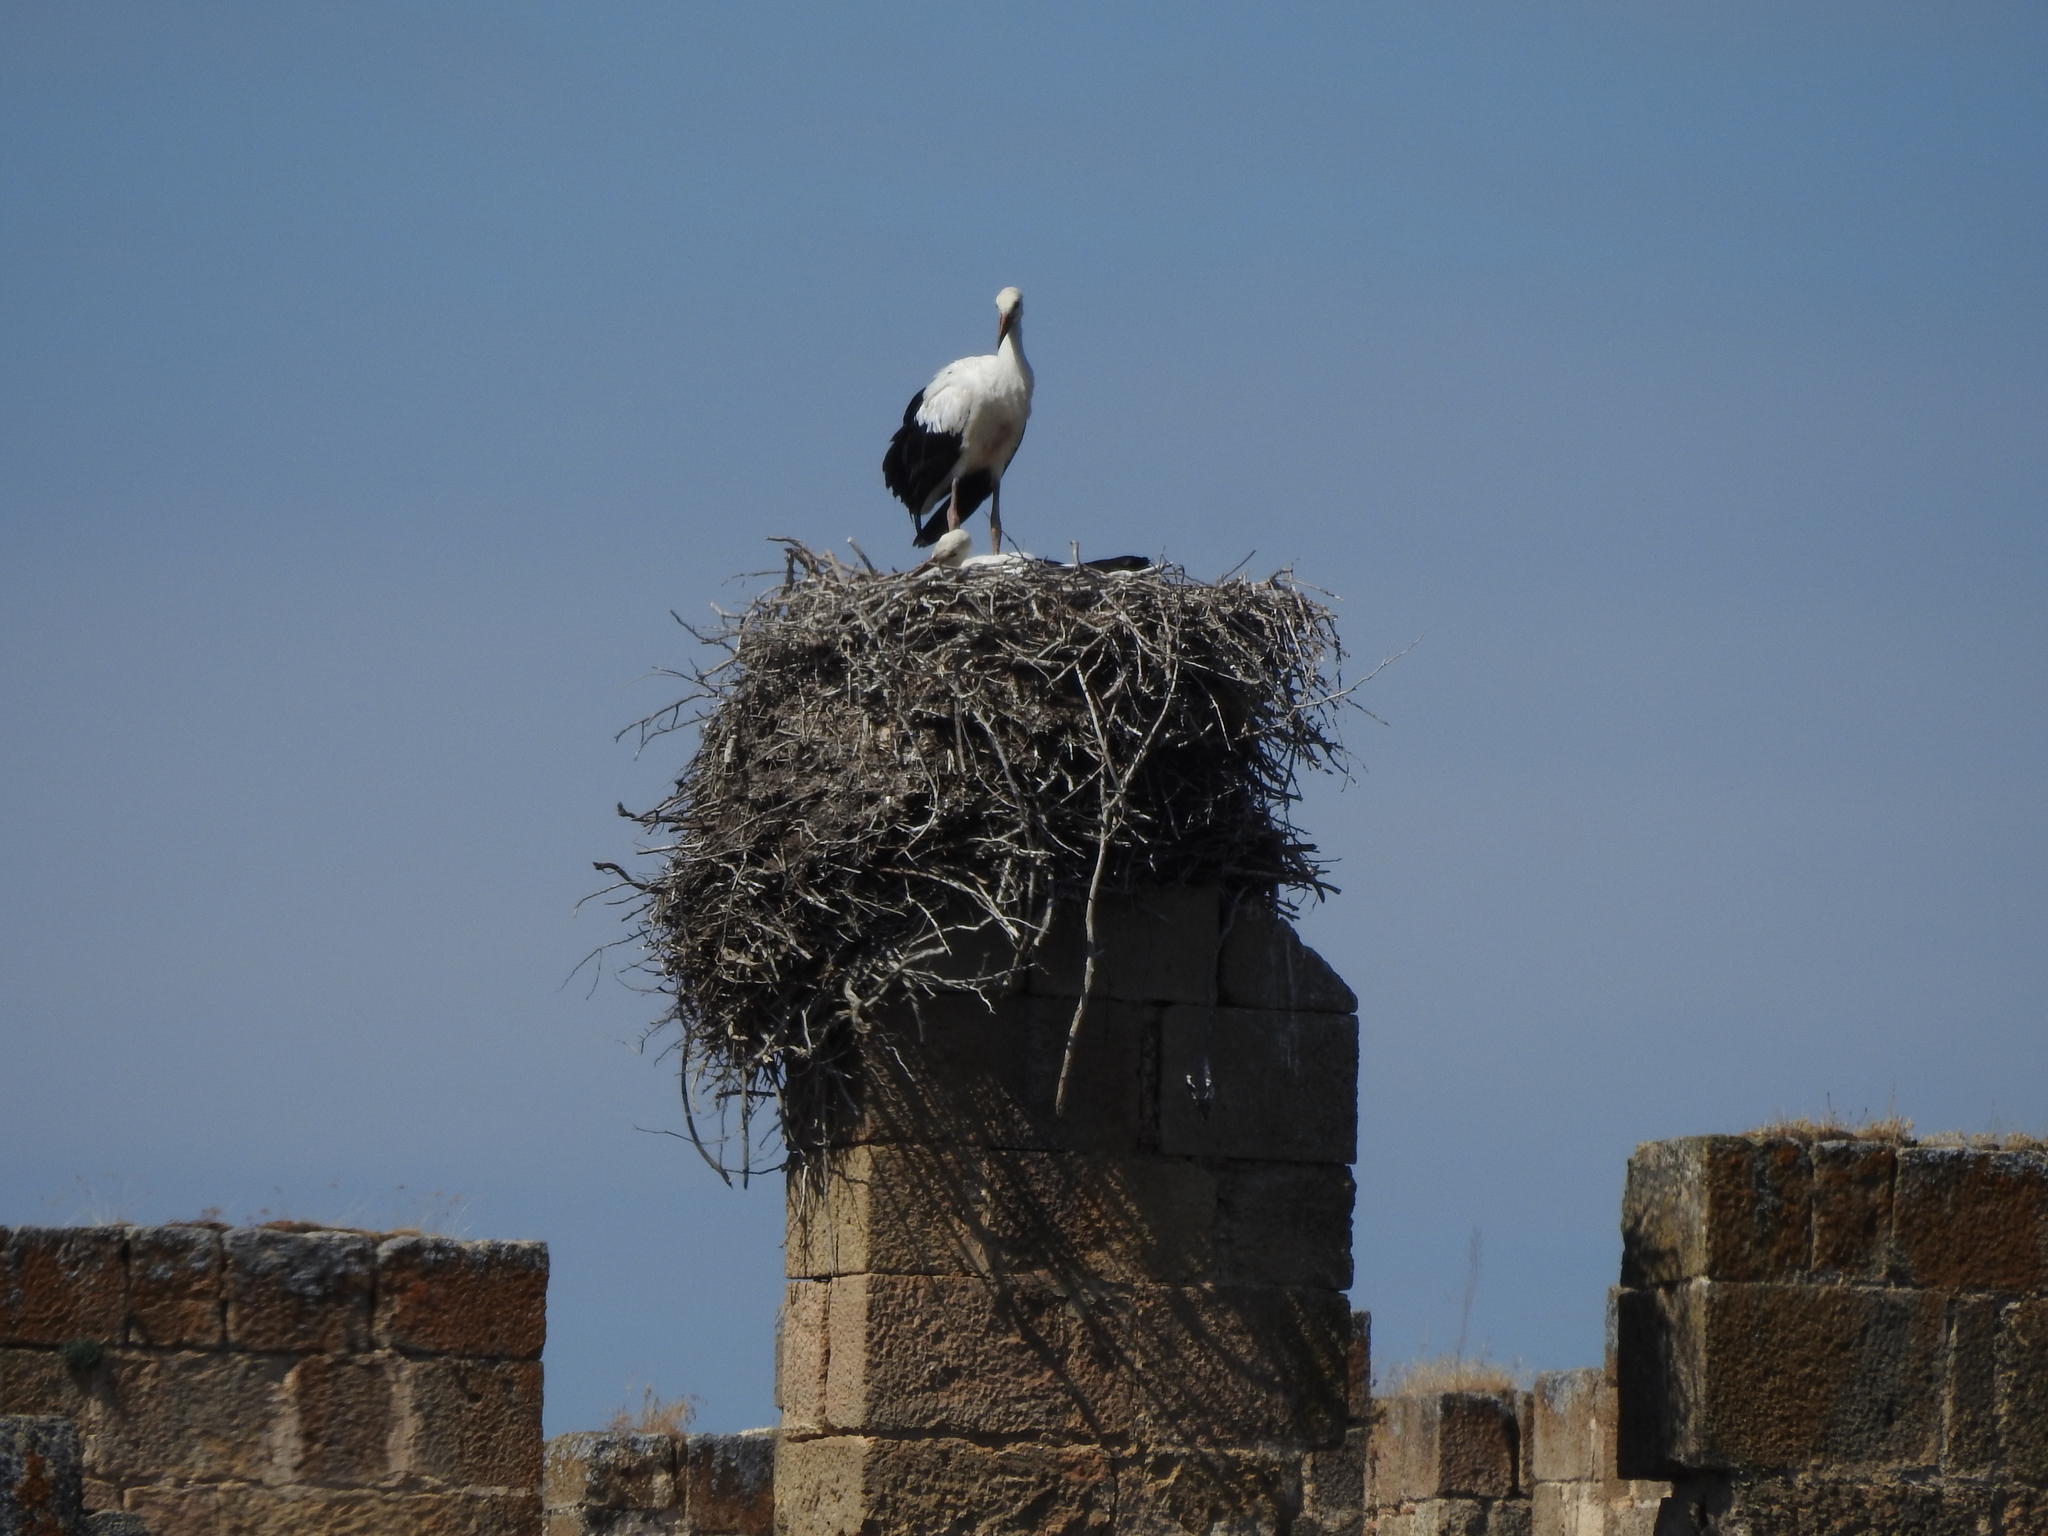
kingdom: Animalia
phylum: Chordata
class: Aves
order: Ciconiiformes
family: Ciconiidae
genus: Ciconia
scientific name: Ciconia ciconia
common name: White stork
